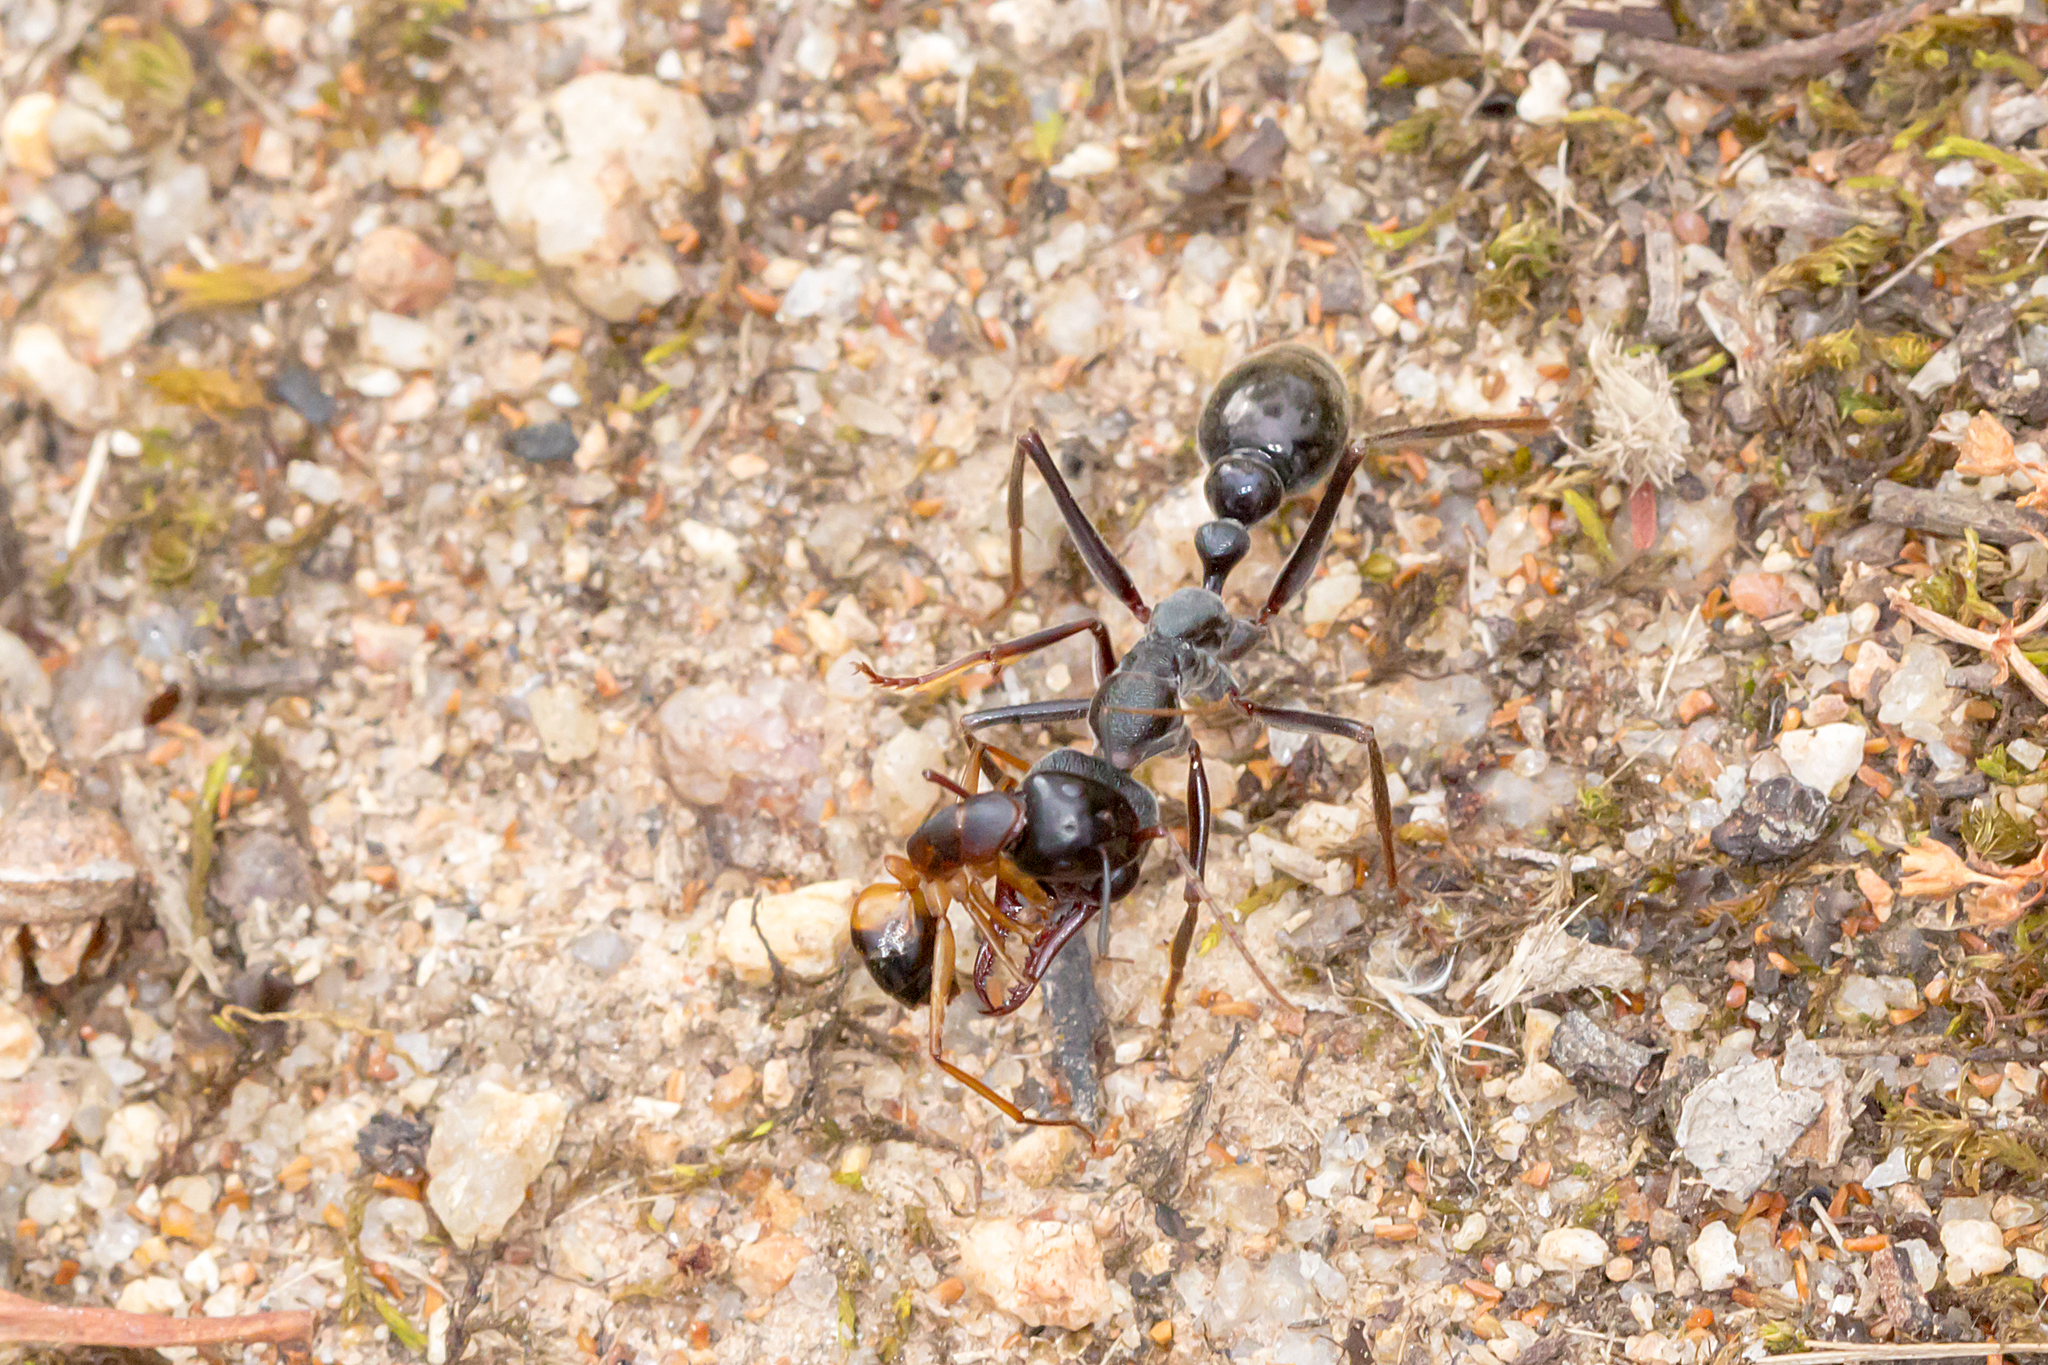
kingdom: Animalia
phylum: Arthropoda
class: Insecta
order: Hymenoptera
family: Formicidae
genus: Myrmecia
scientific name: Myrmecia pyriformis
